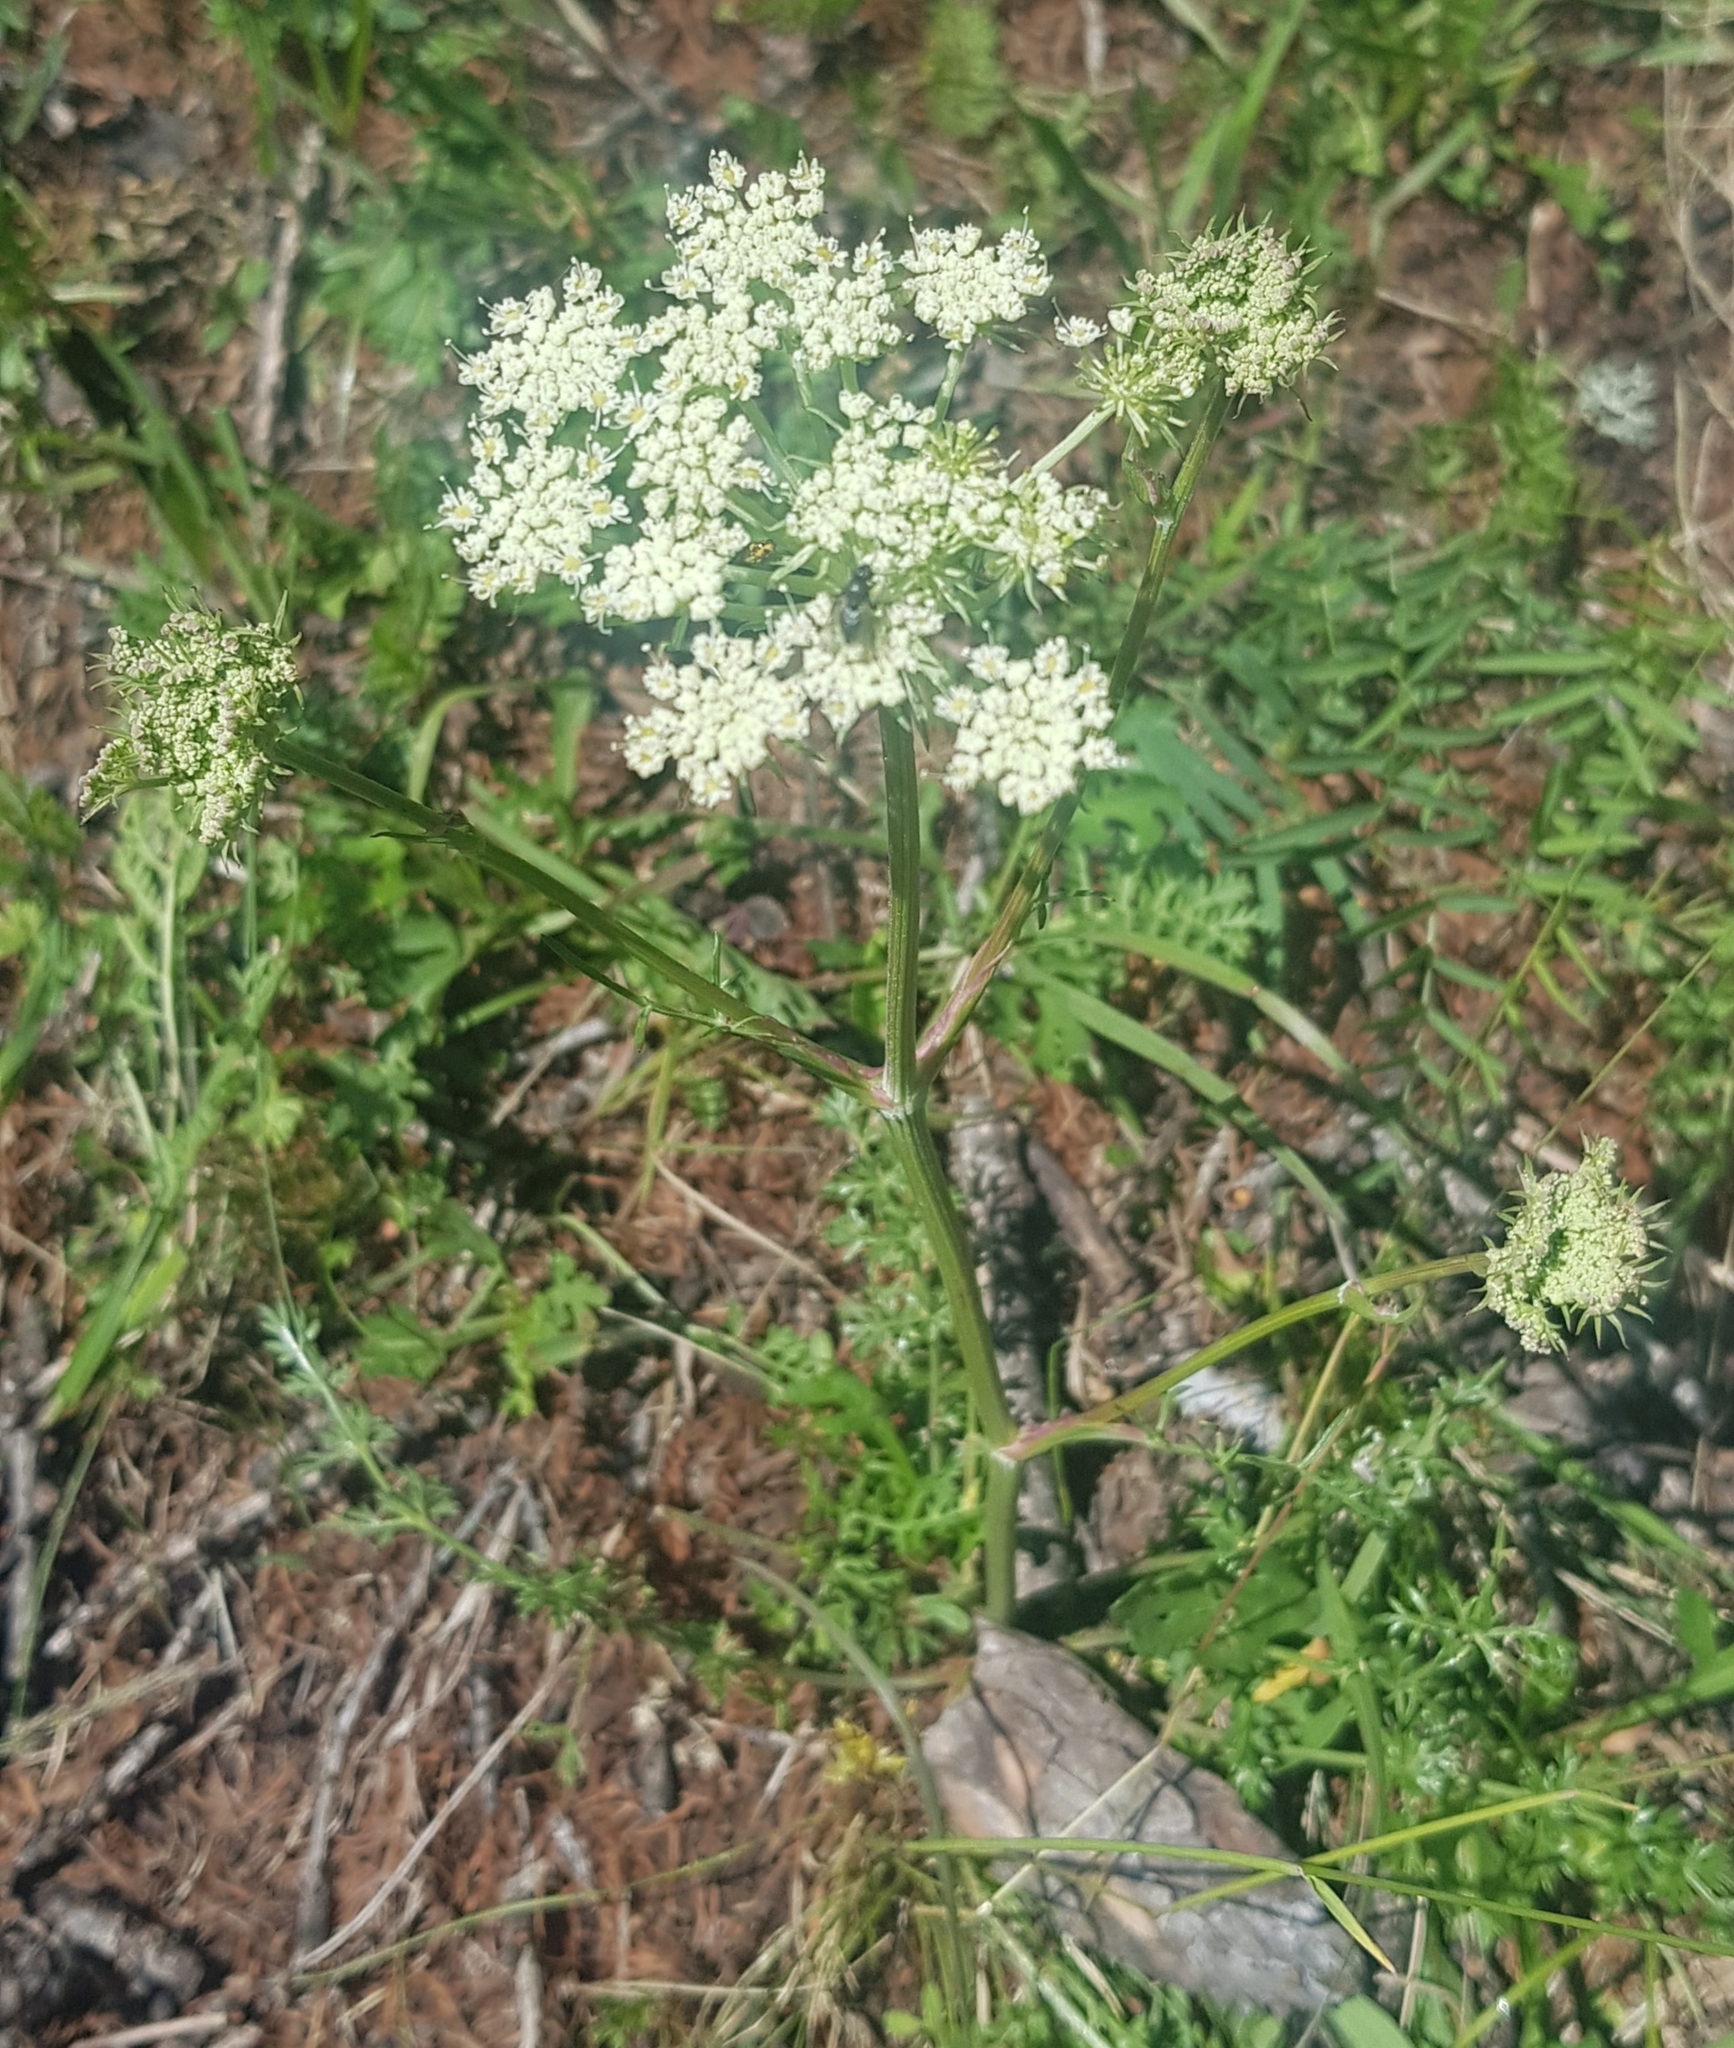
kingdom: Plantae
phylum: Tracheophyta
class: Magnoliopsida
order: Apiales
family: Apiaceae
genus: Cnidium
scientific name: Cnidium dauricum
